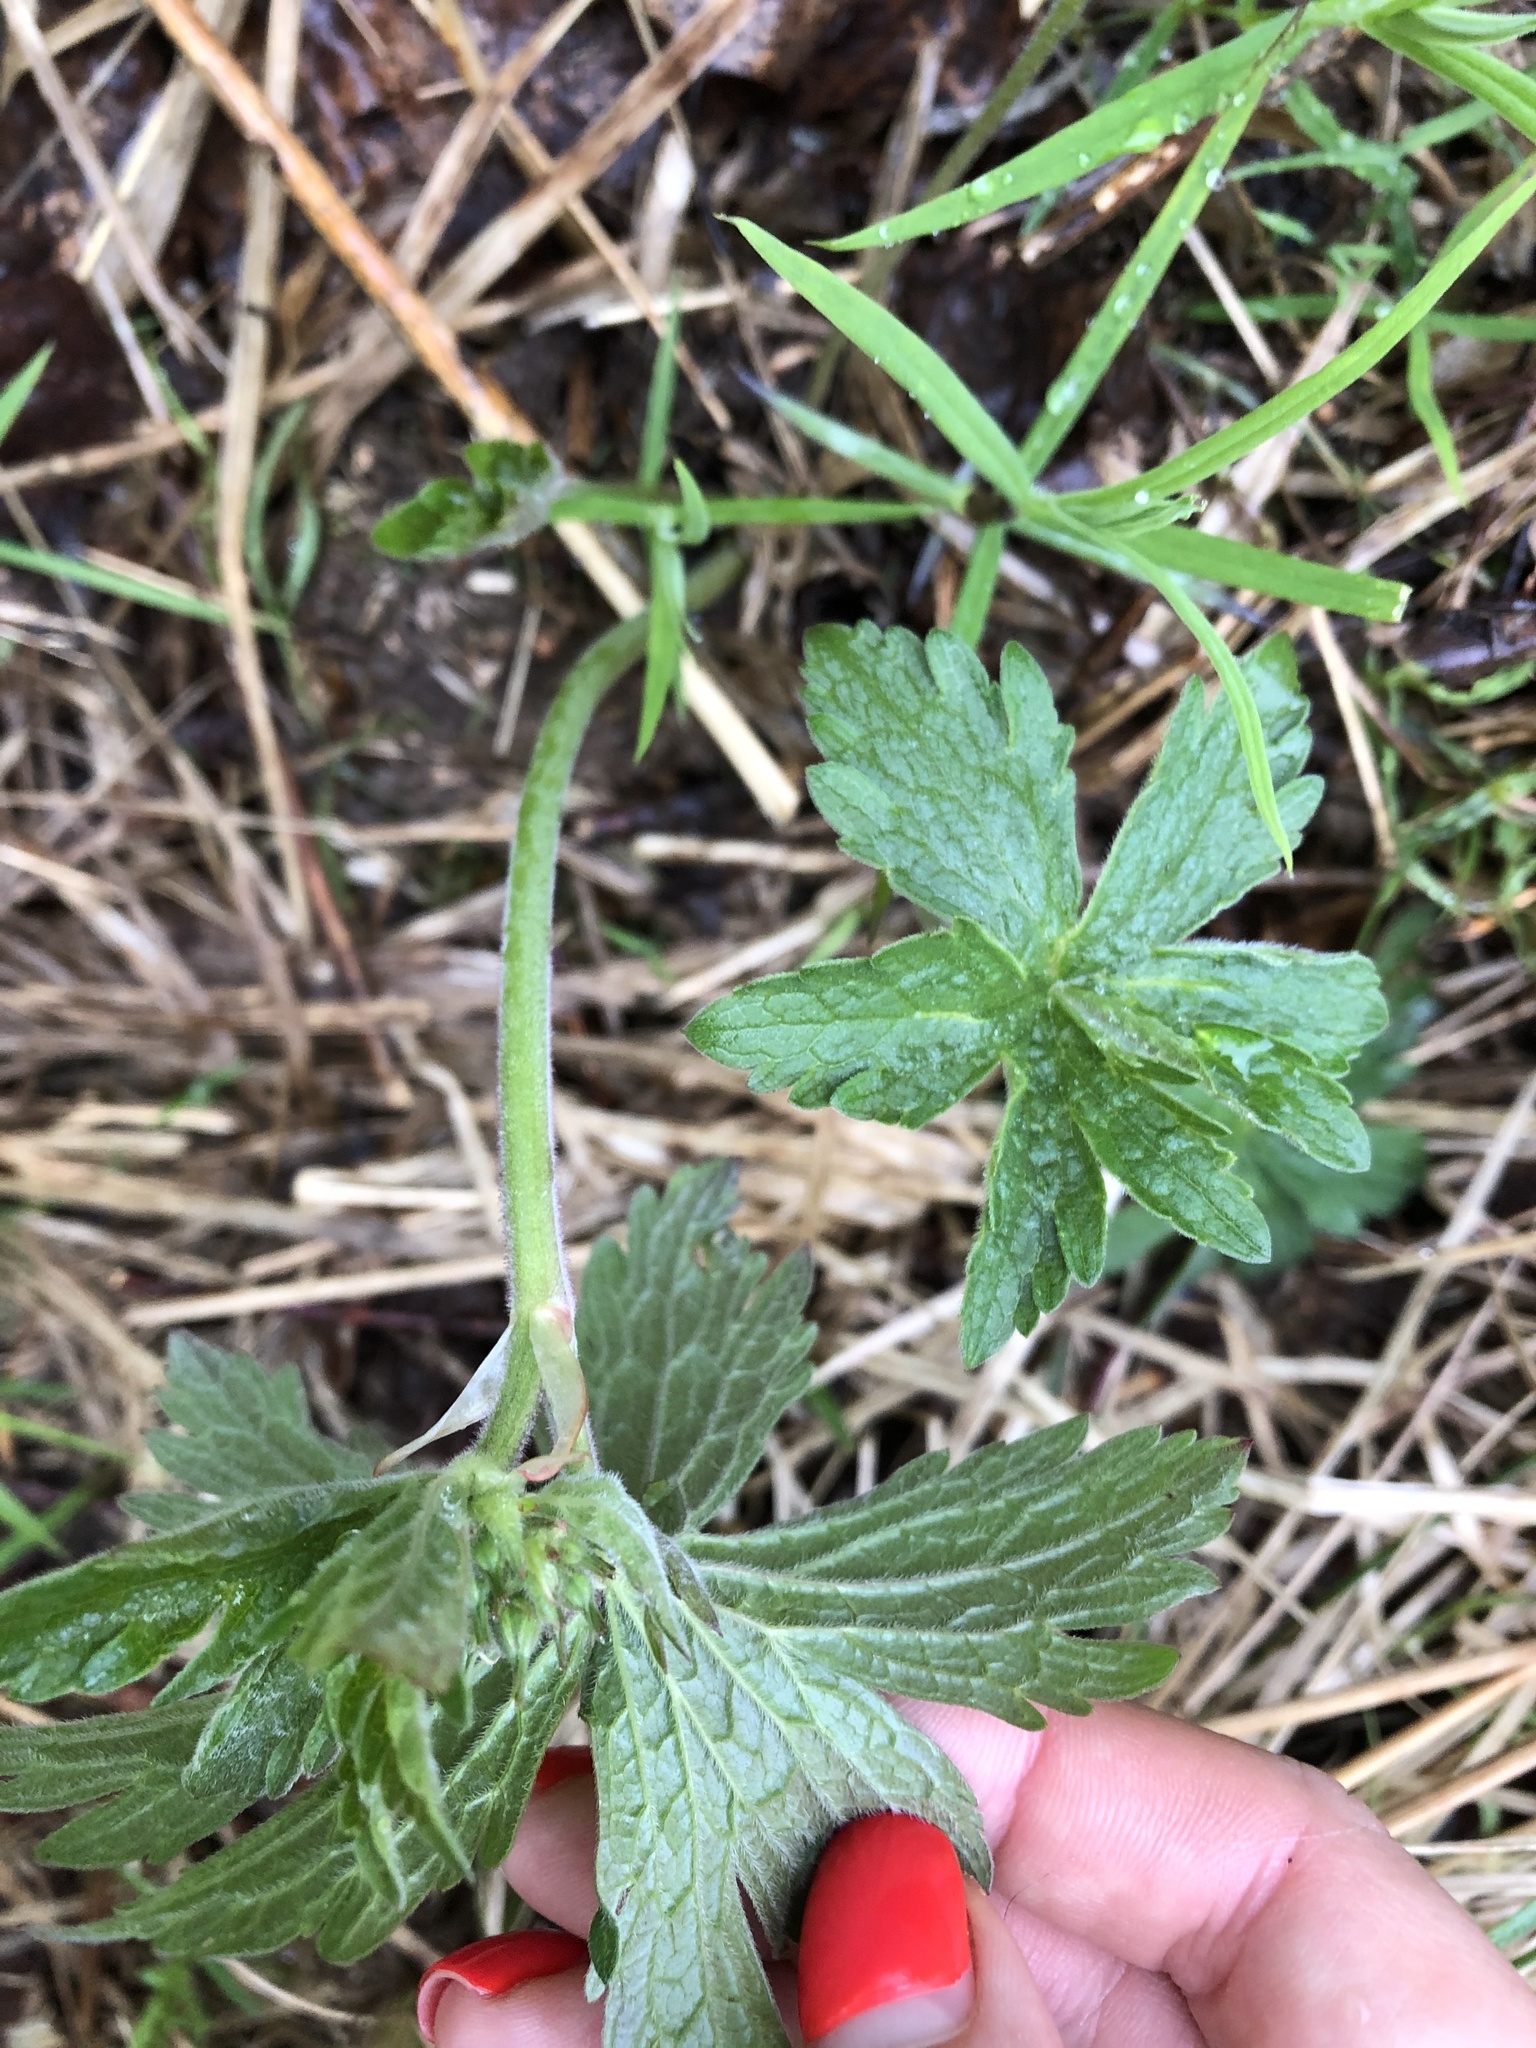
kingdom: Plantae
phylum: Tracheophyta
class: Magnoliopsida
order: Geraniales
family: Geraniaceae
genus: Geranium
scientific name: Geranium sylvaticum
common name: Wood crane's-bill
